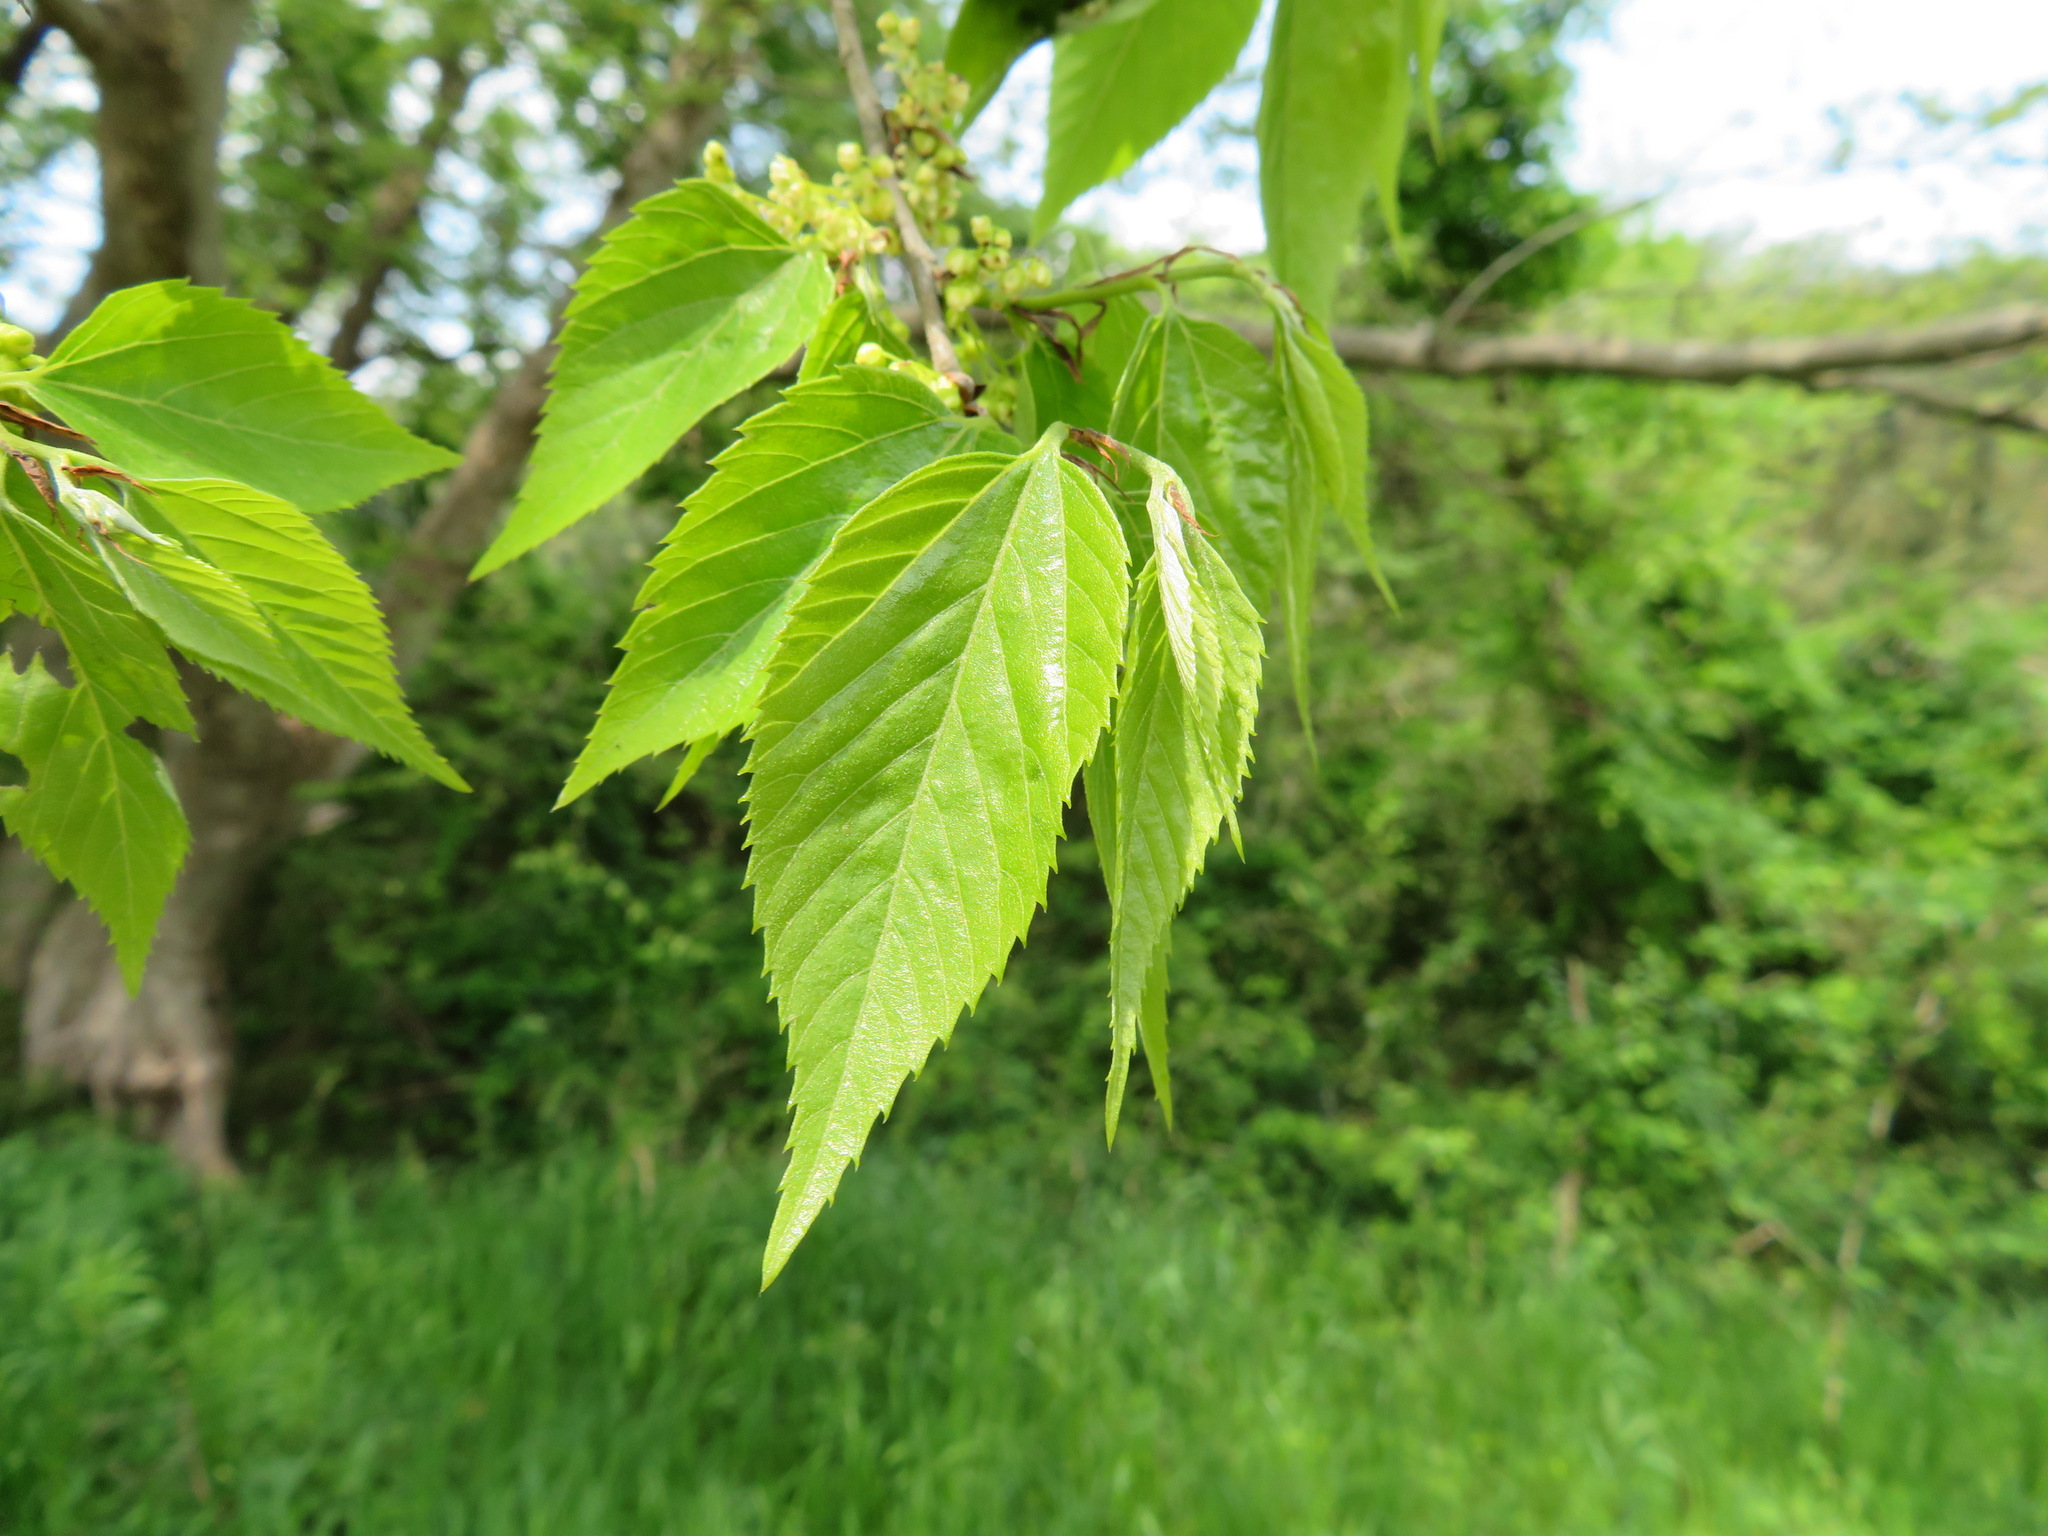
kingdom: Plantae
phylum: Tracheophyta
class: Magnoliopsida
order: Rosales
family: Cannabaceae
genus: Aphananthe
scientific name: Aphananthe aspera
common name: Mukutree
